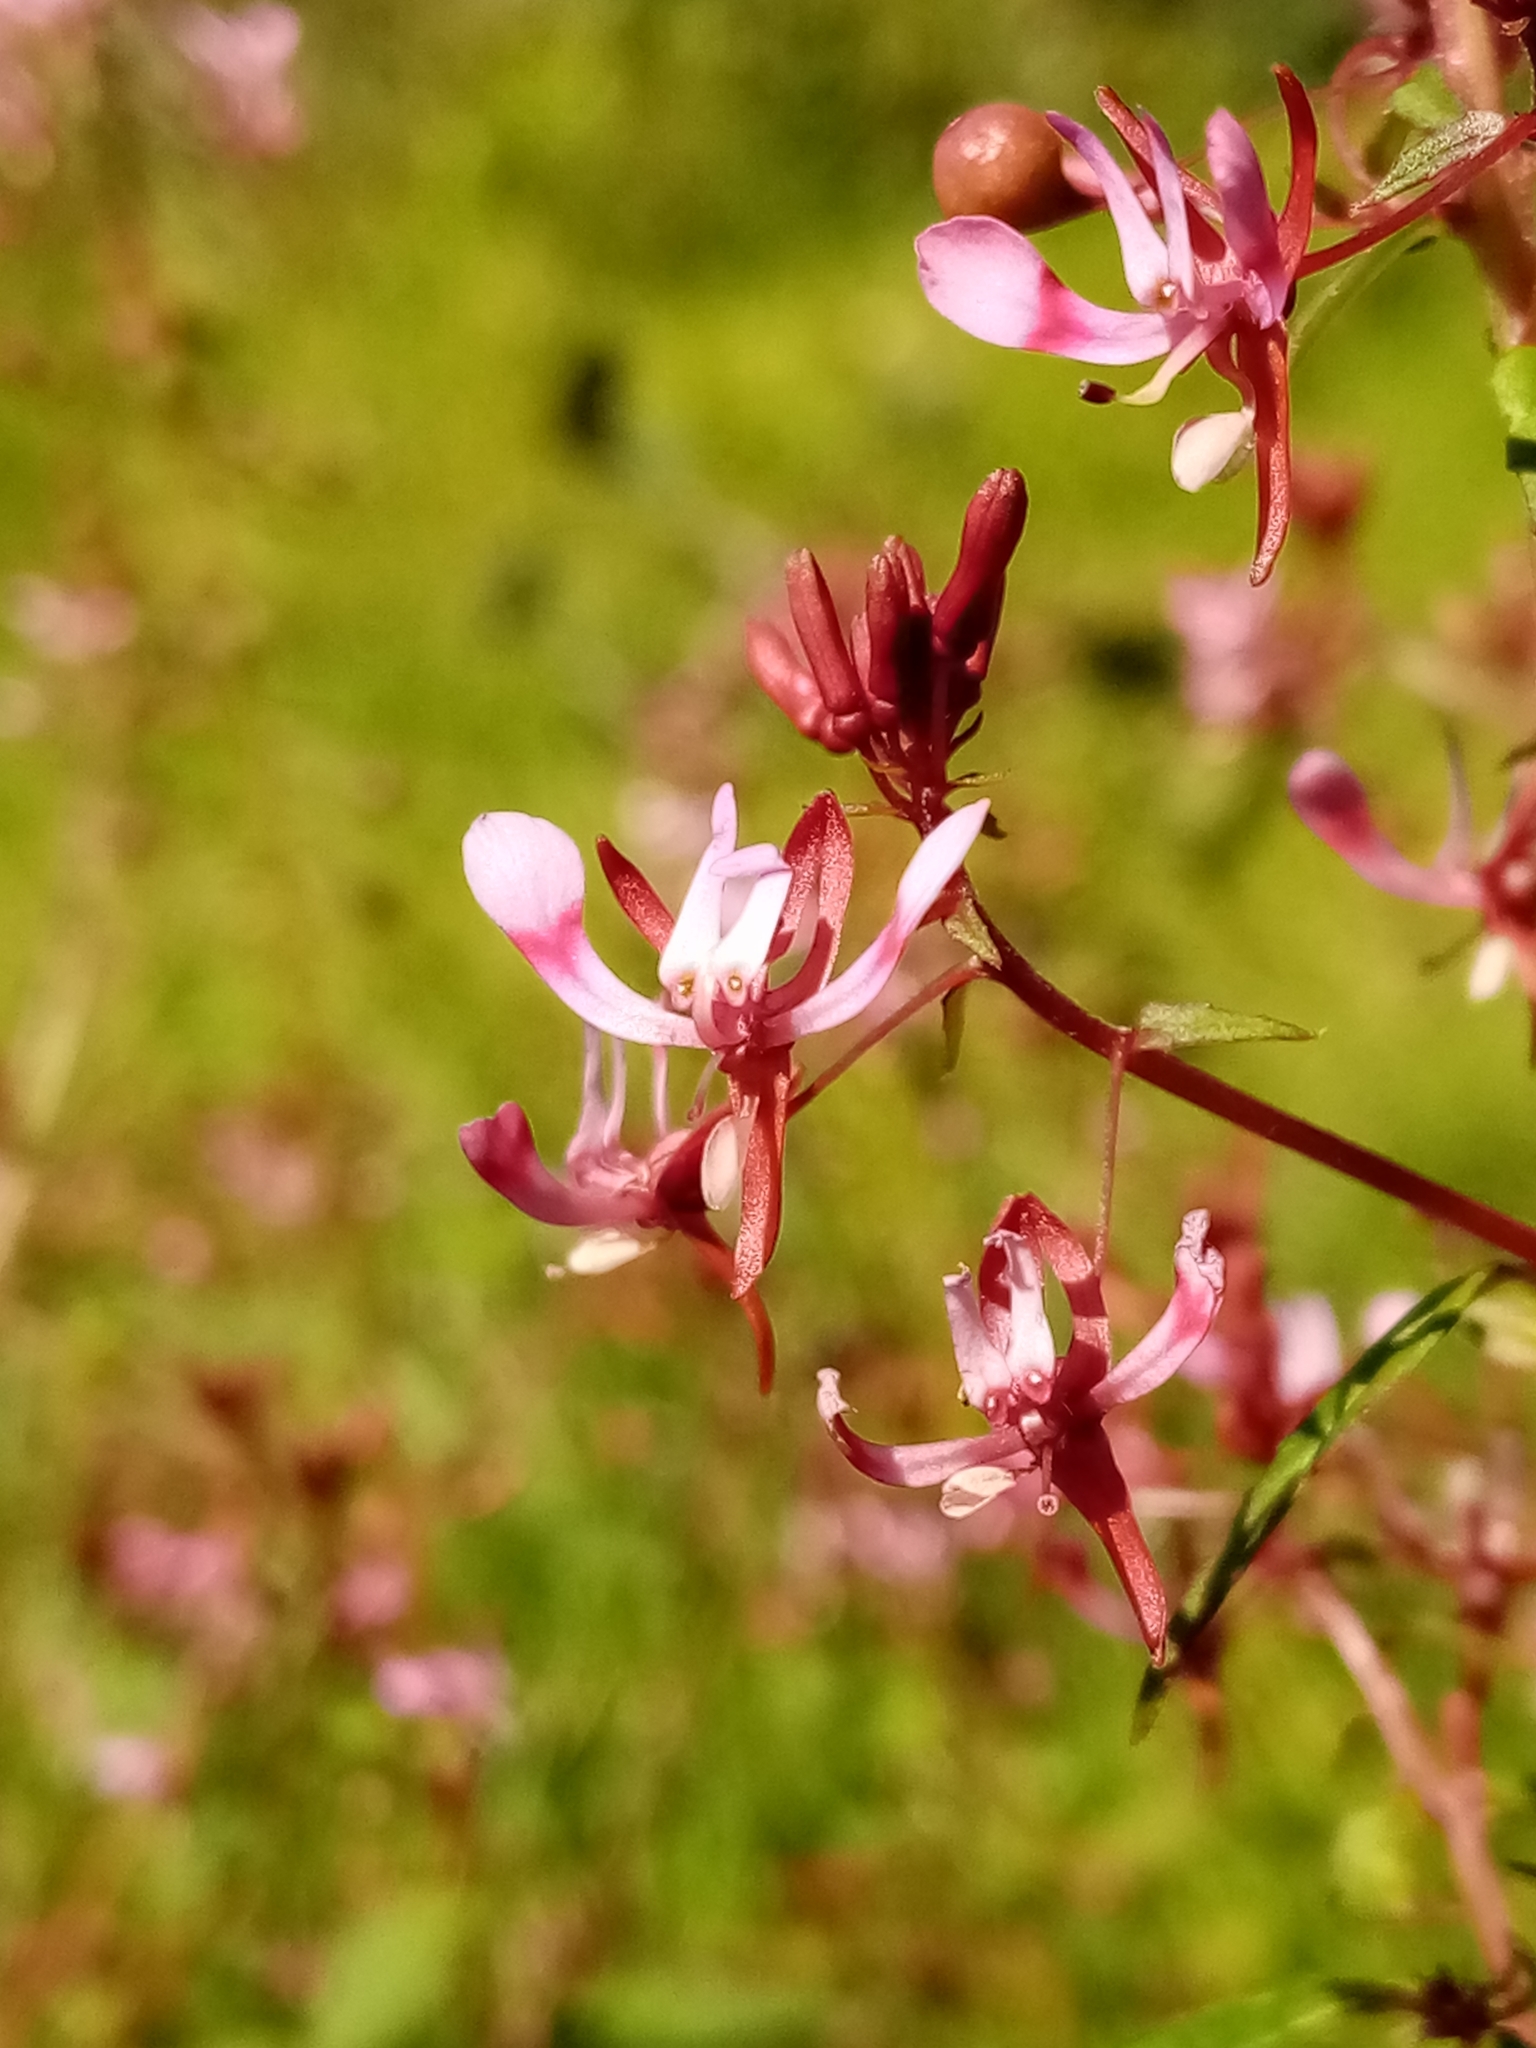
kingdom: Plantae
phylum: Tracheophyta
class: Magnoliopsida
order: Myrtales
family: Onagraceae
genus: Lopezia
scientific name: Lopezia racemosa
